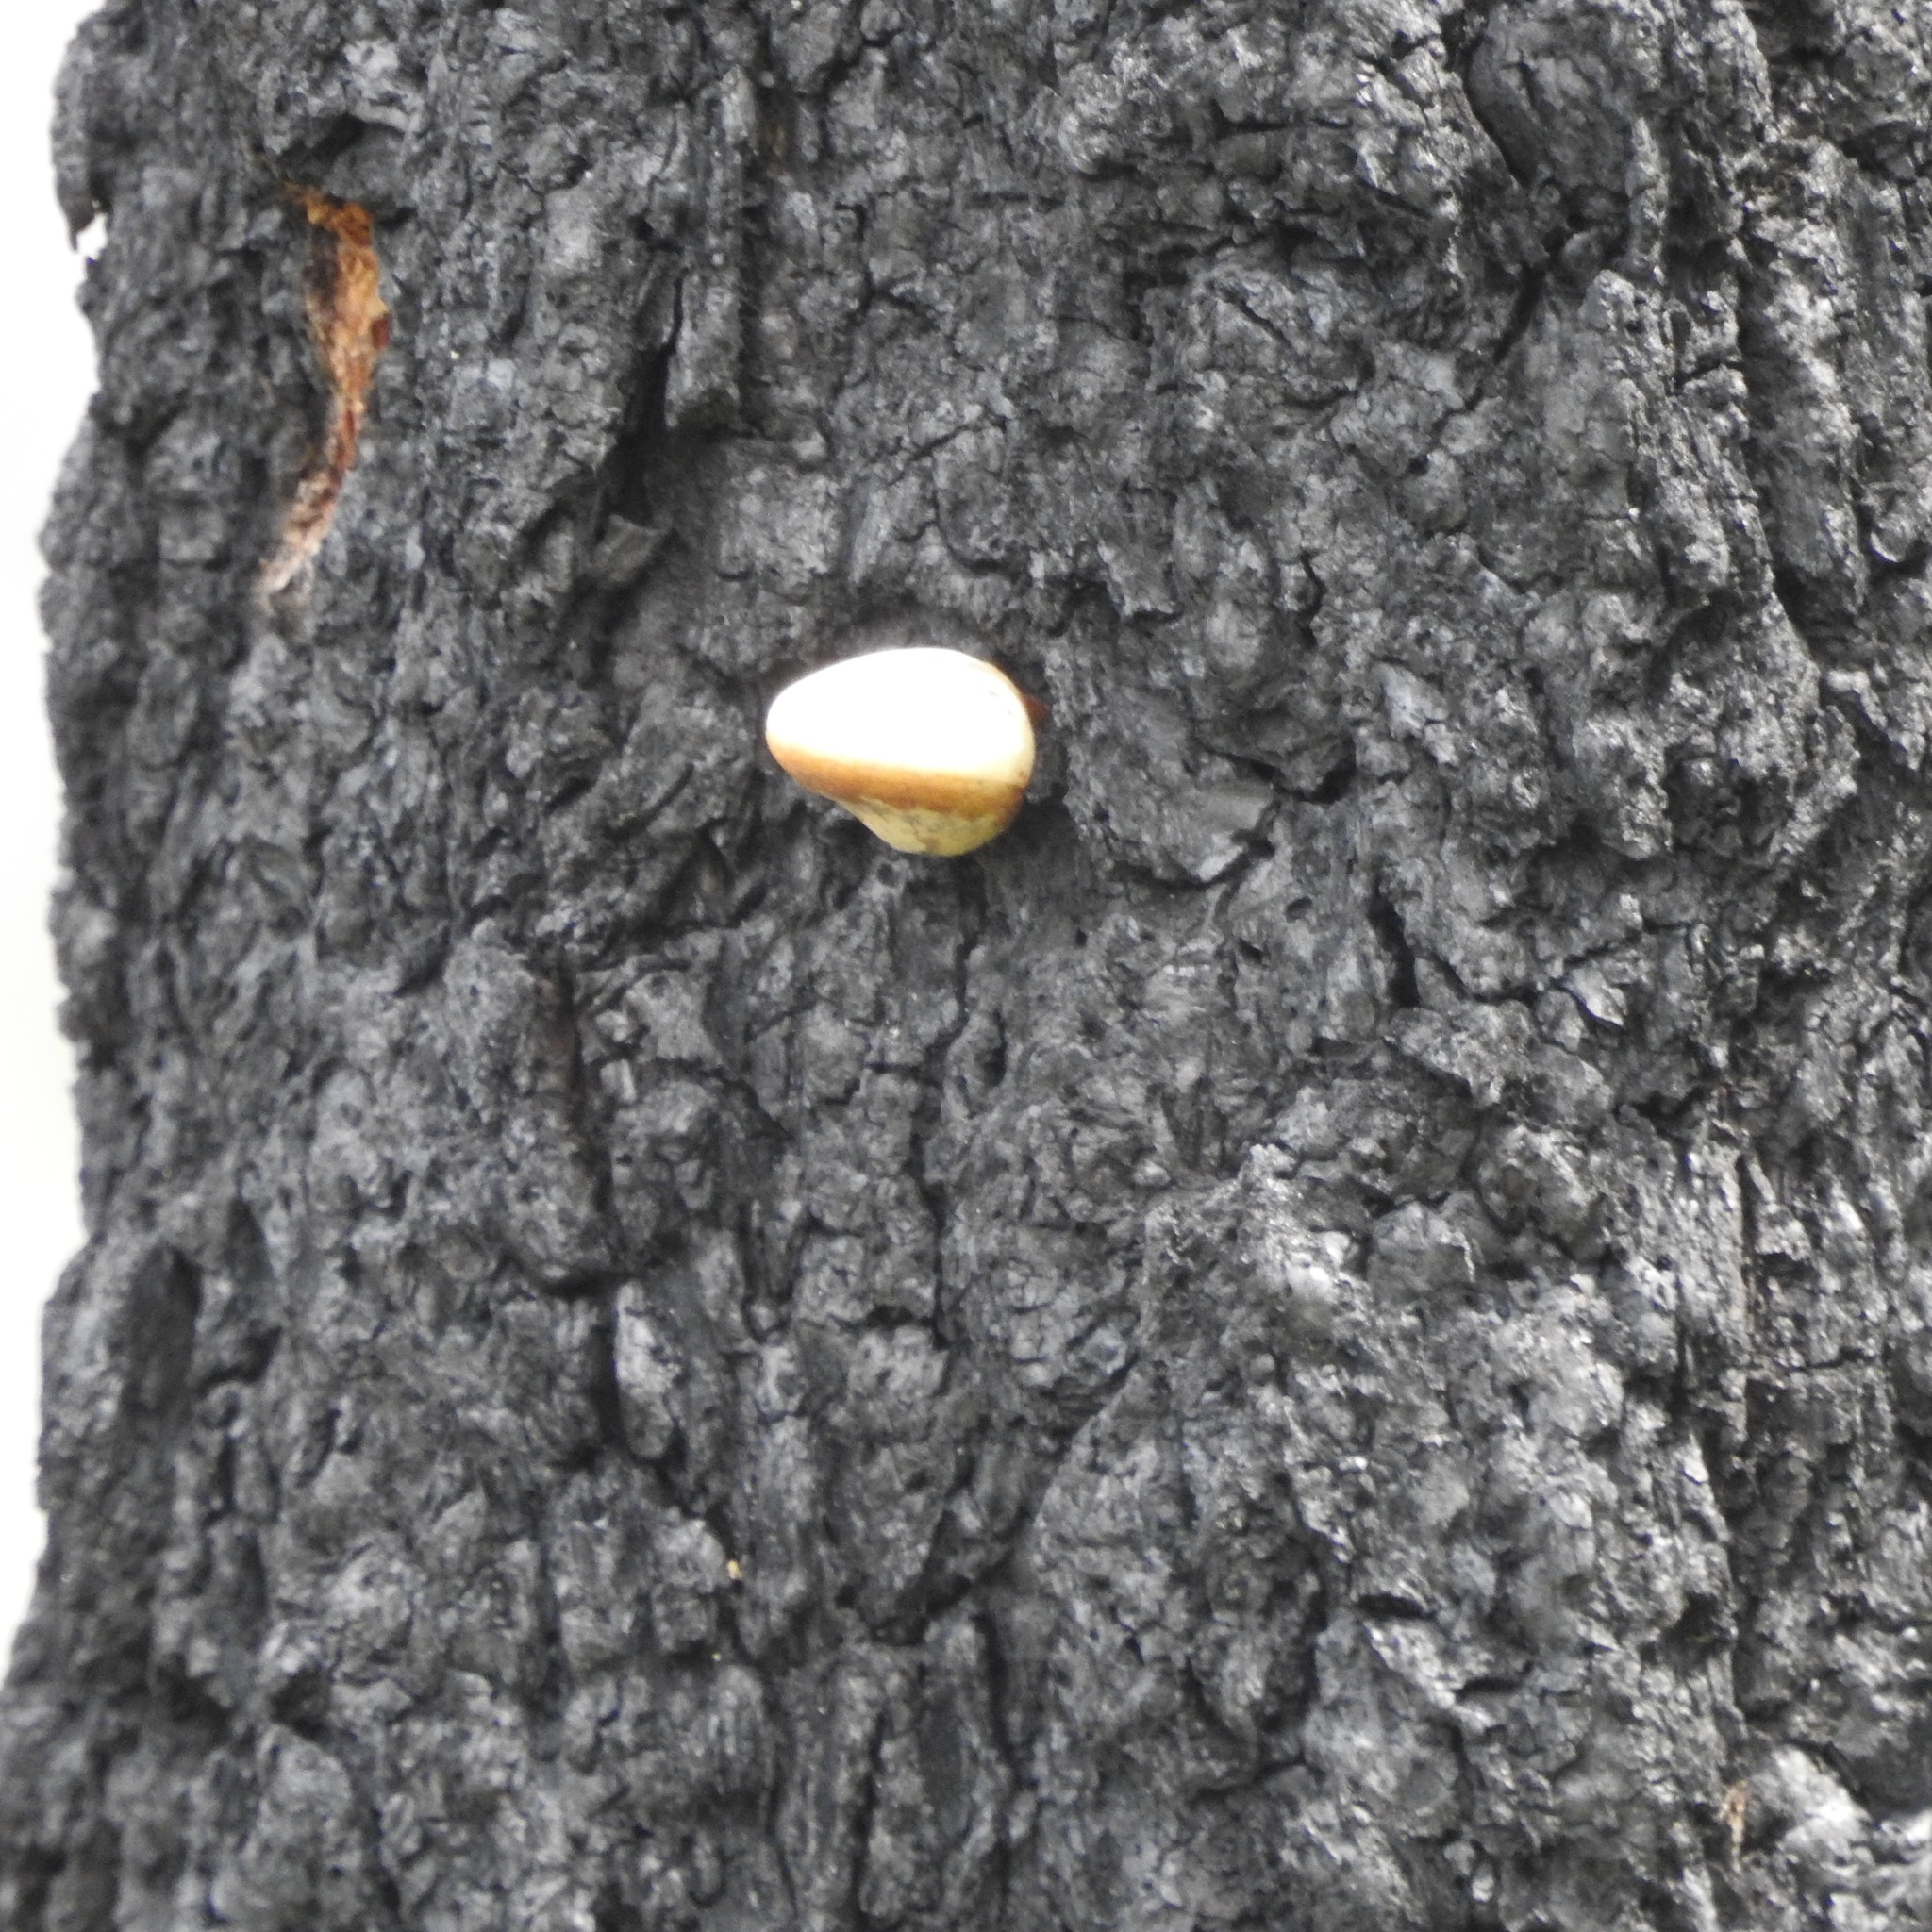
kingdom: Fungi
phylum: Basidiomycota
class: Agaricomycetes
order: Polyporales
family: Polyporaceae
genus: Cryptoporus
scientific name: Cryptoporus volvatus
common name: Veiled polypore
